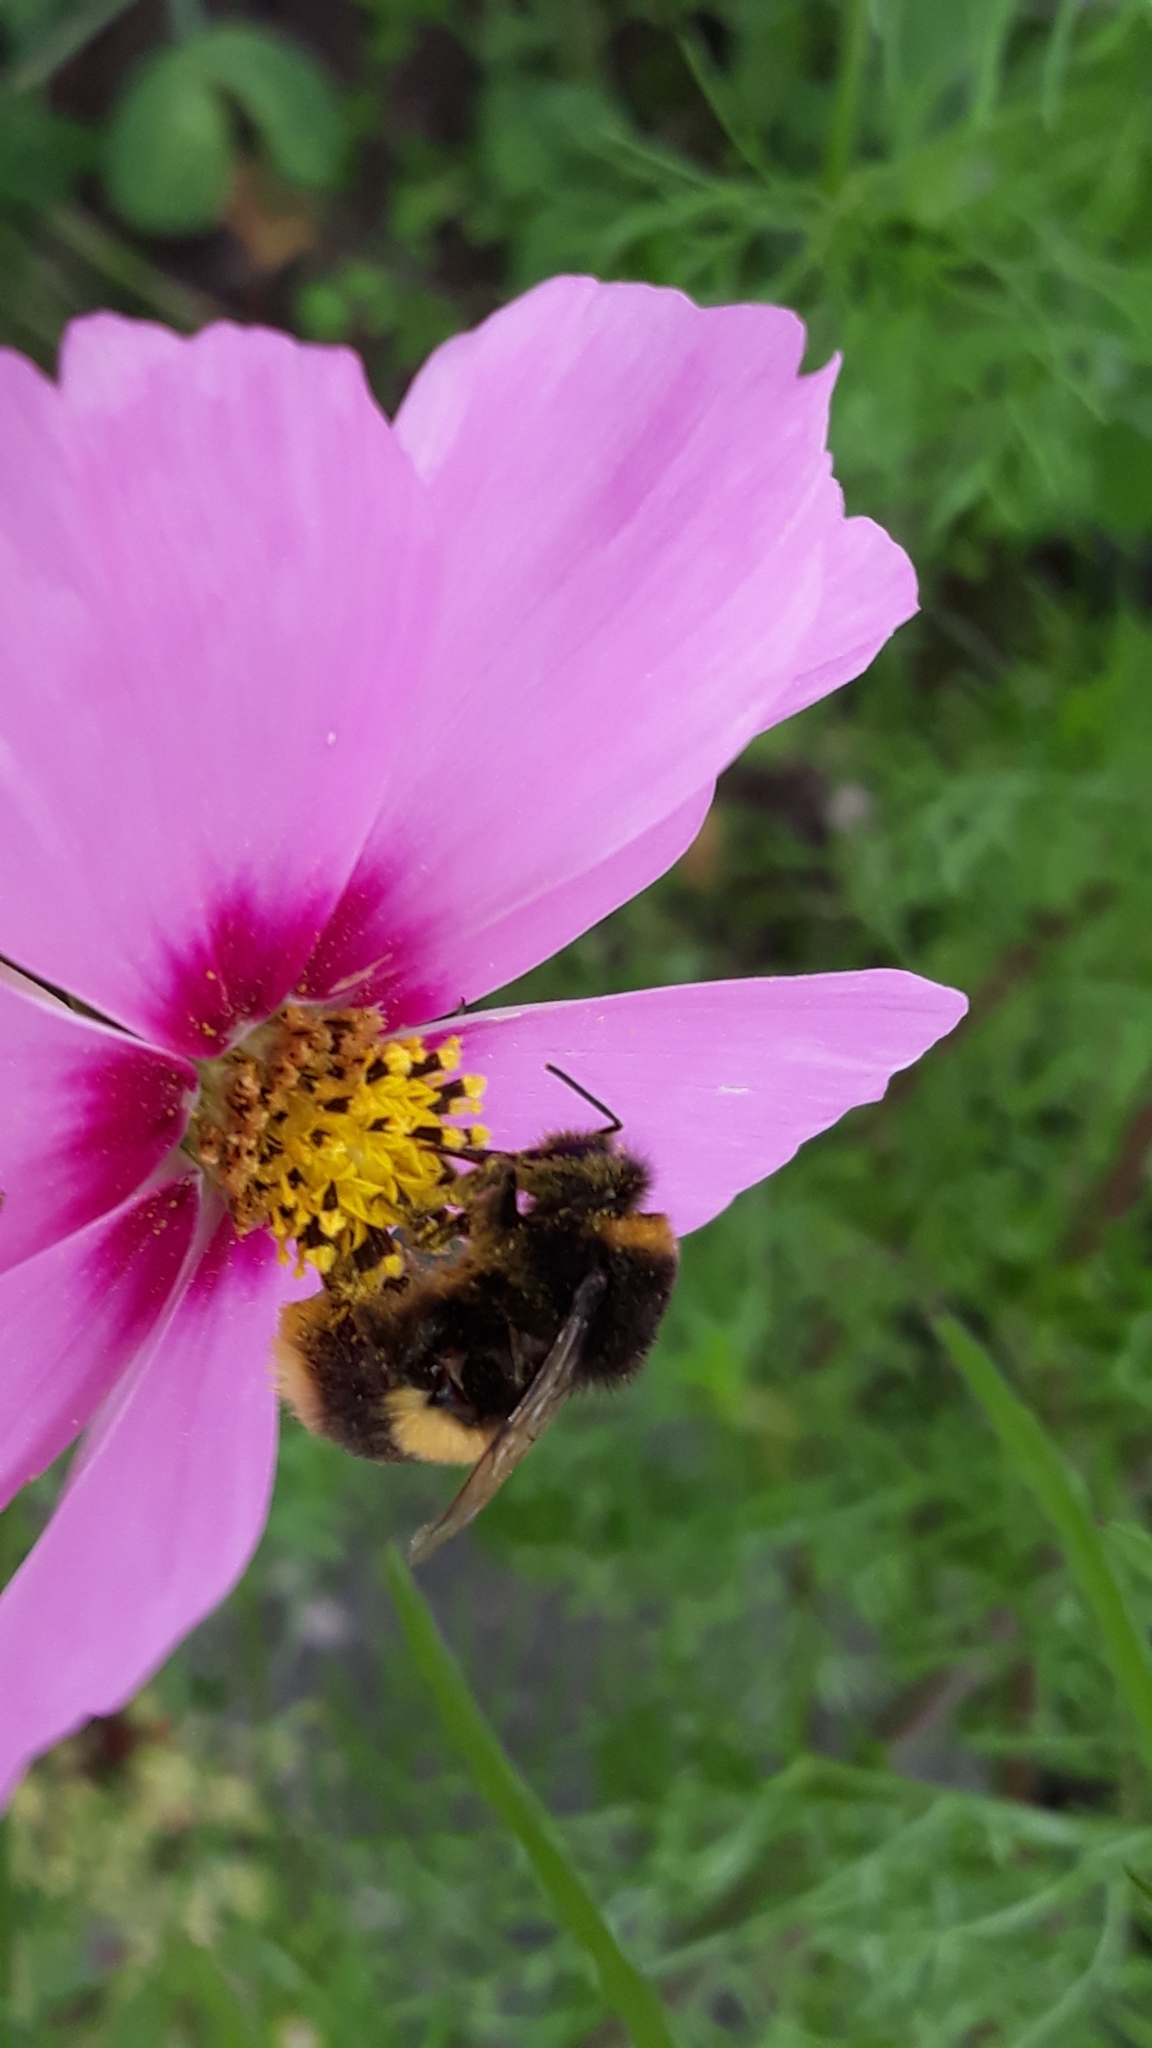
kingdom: Animalia
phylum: Arthropoda
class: Insecta
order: Hymenoptera
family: Apidae
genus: Bombus
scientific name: Bombus terrestris
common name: Buff-tailed bumblebee
